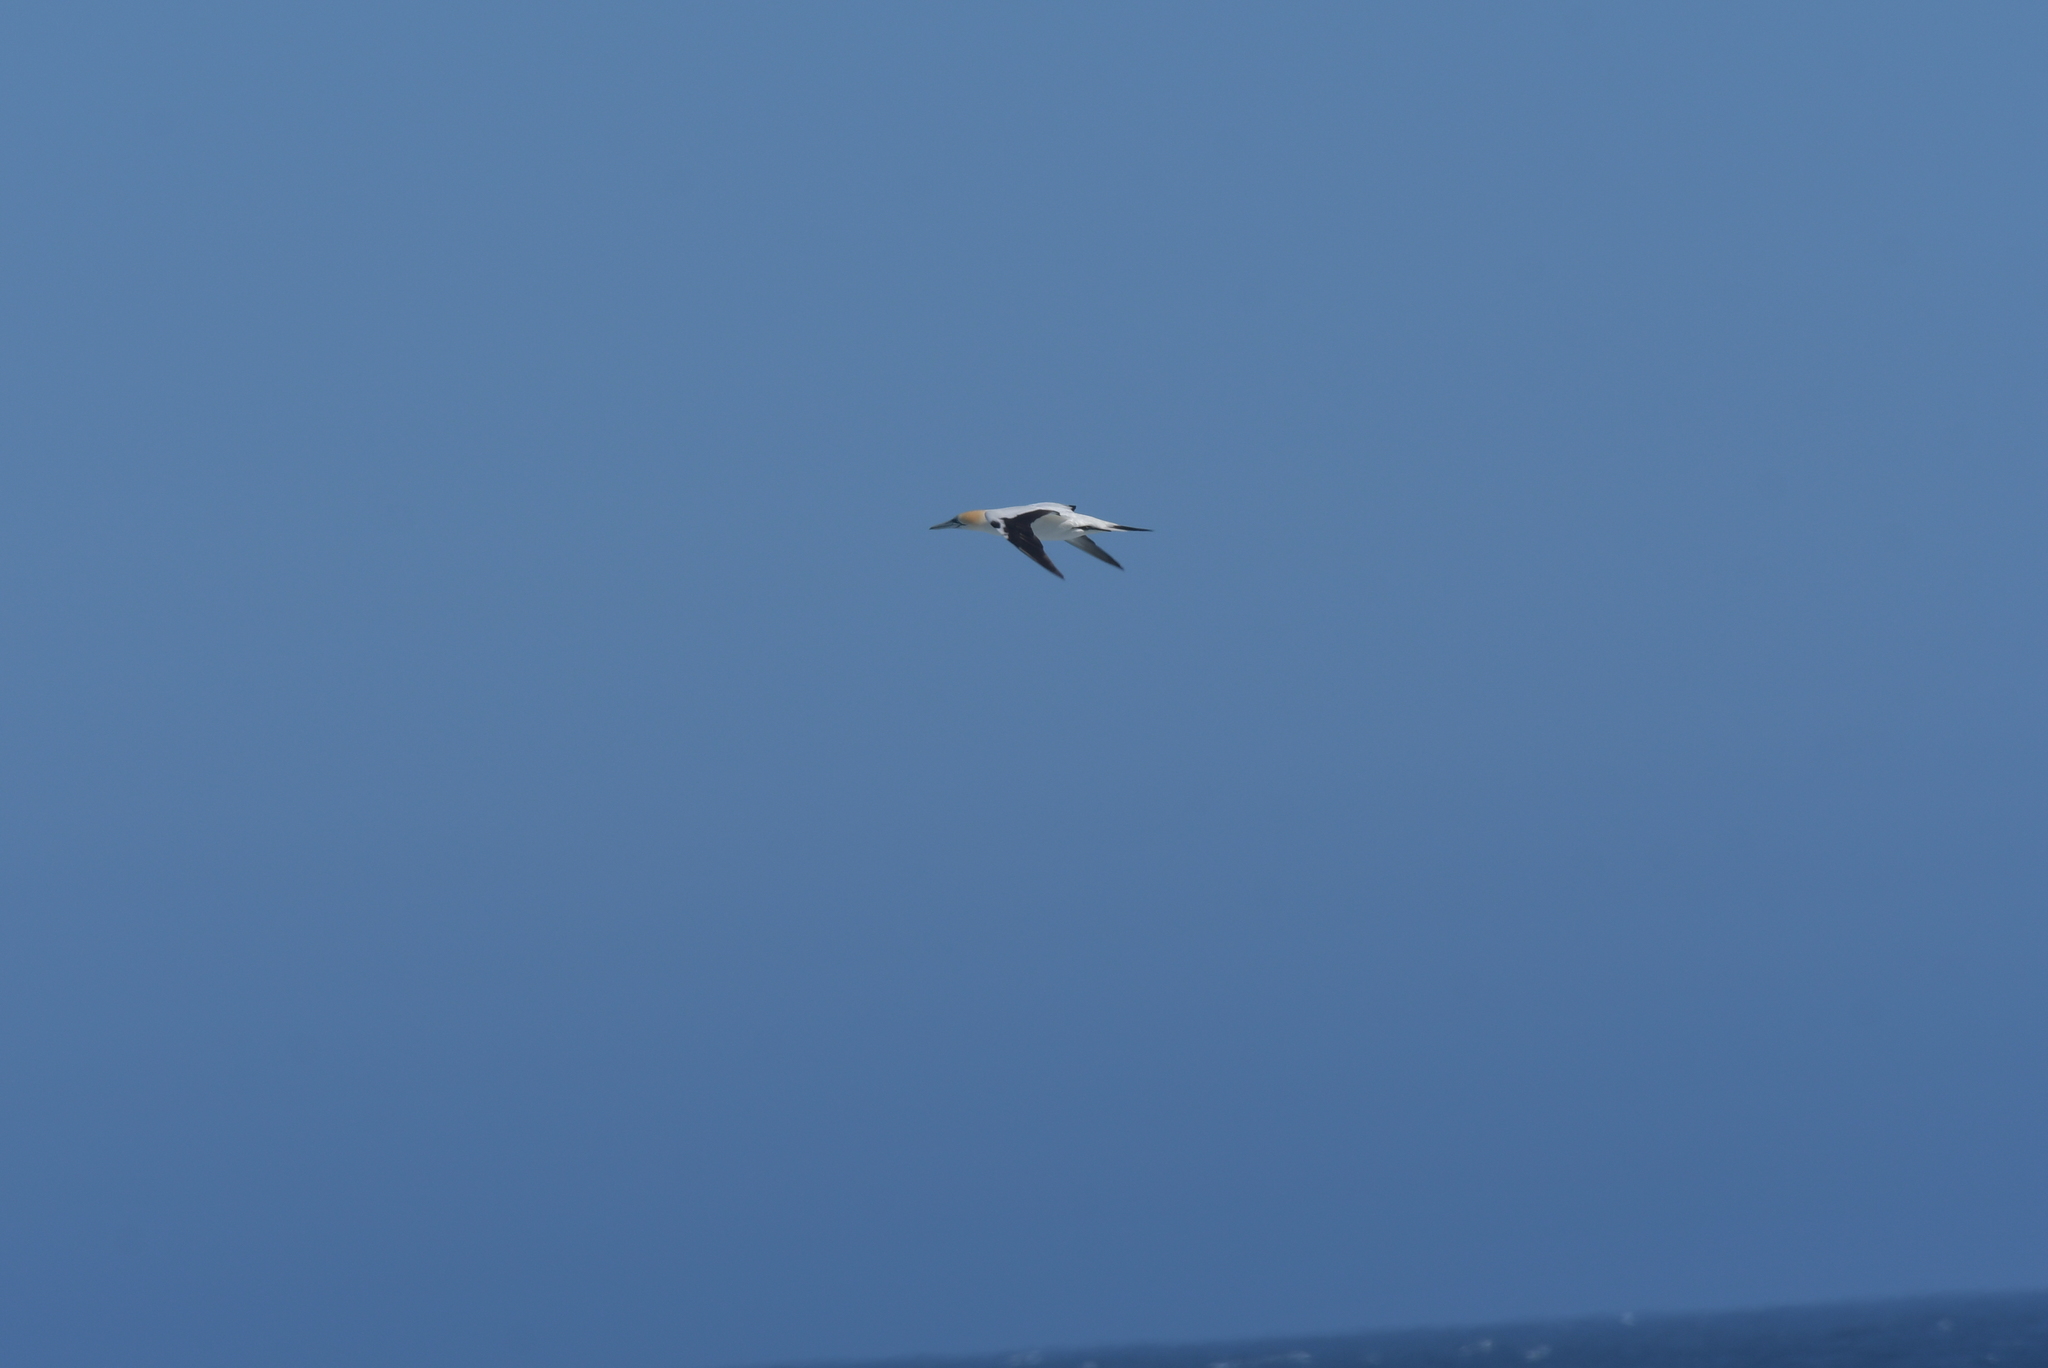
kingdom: Animalia
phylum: Chordata
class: Aves
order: Suliformes
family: Sulidae
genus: Morus
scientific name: Morus serrator
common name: Australasian gannet
